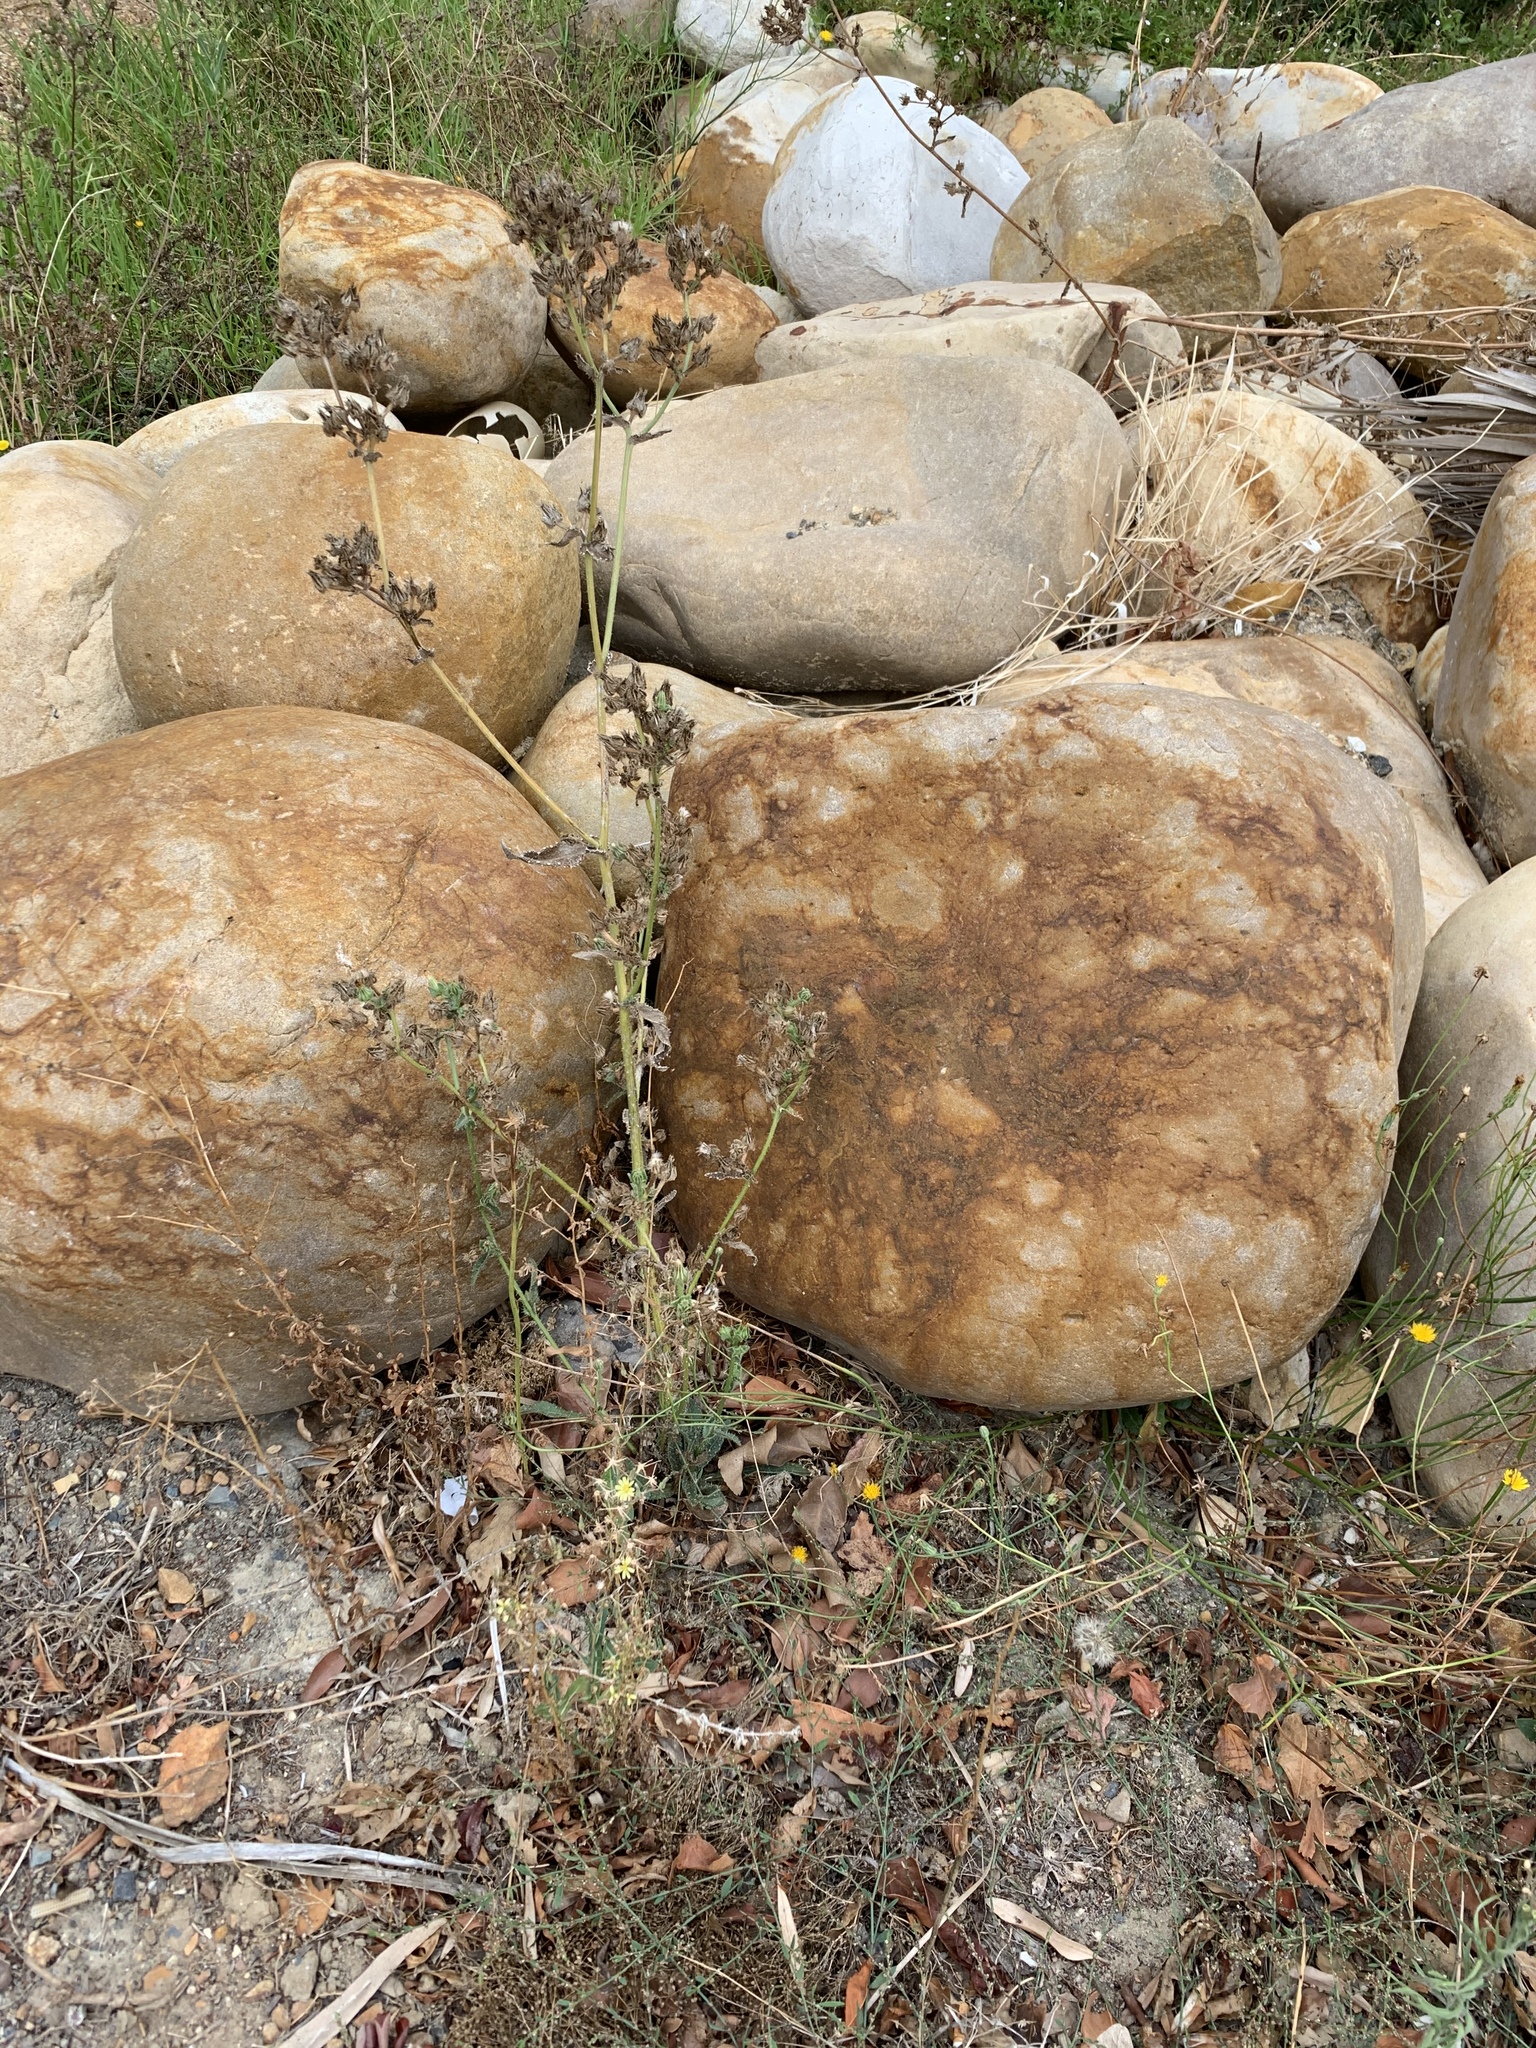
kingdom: Plantae
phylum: Tracheophyta
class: Magnoliopsida
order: Asterales
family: Asteraceae
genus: Helminthotheca
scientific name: Helminthotheca echioides
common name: Ox-tongue
